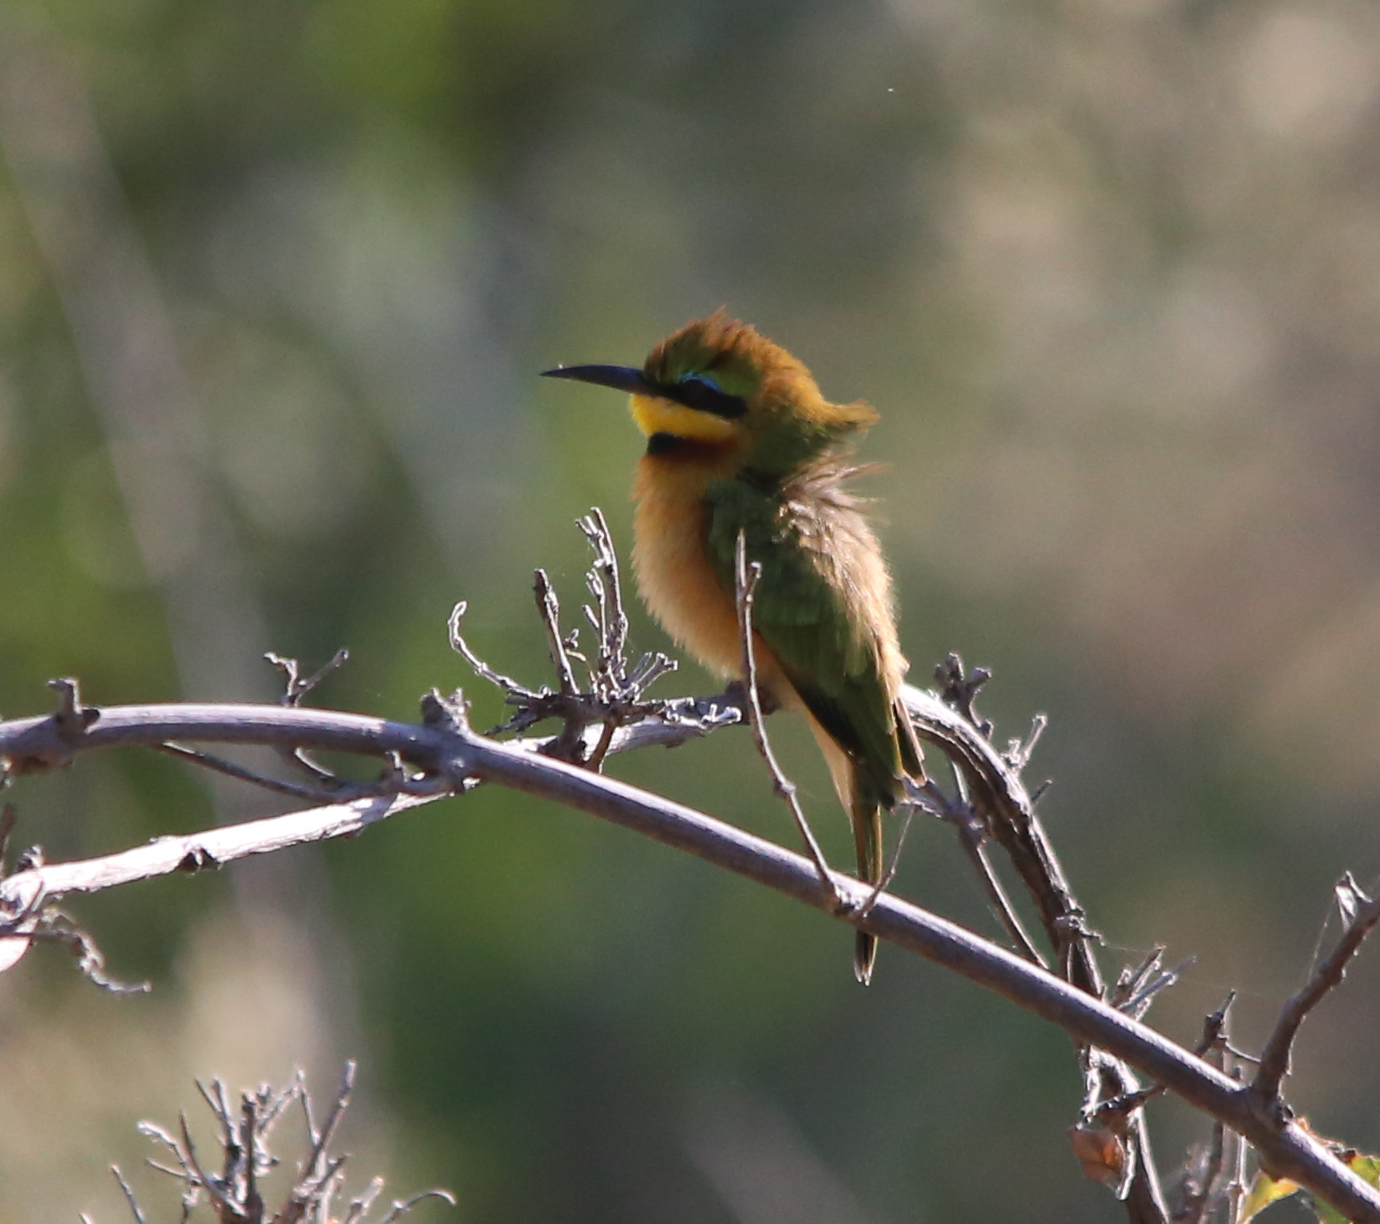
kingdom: Animalia
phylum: Chordata
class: Aves
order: Coraciiformes
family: Meropidae
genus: Merops
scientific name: Merops pusillus
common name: Little bee-eater
